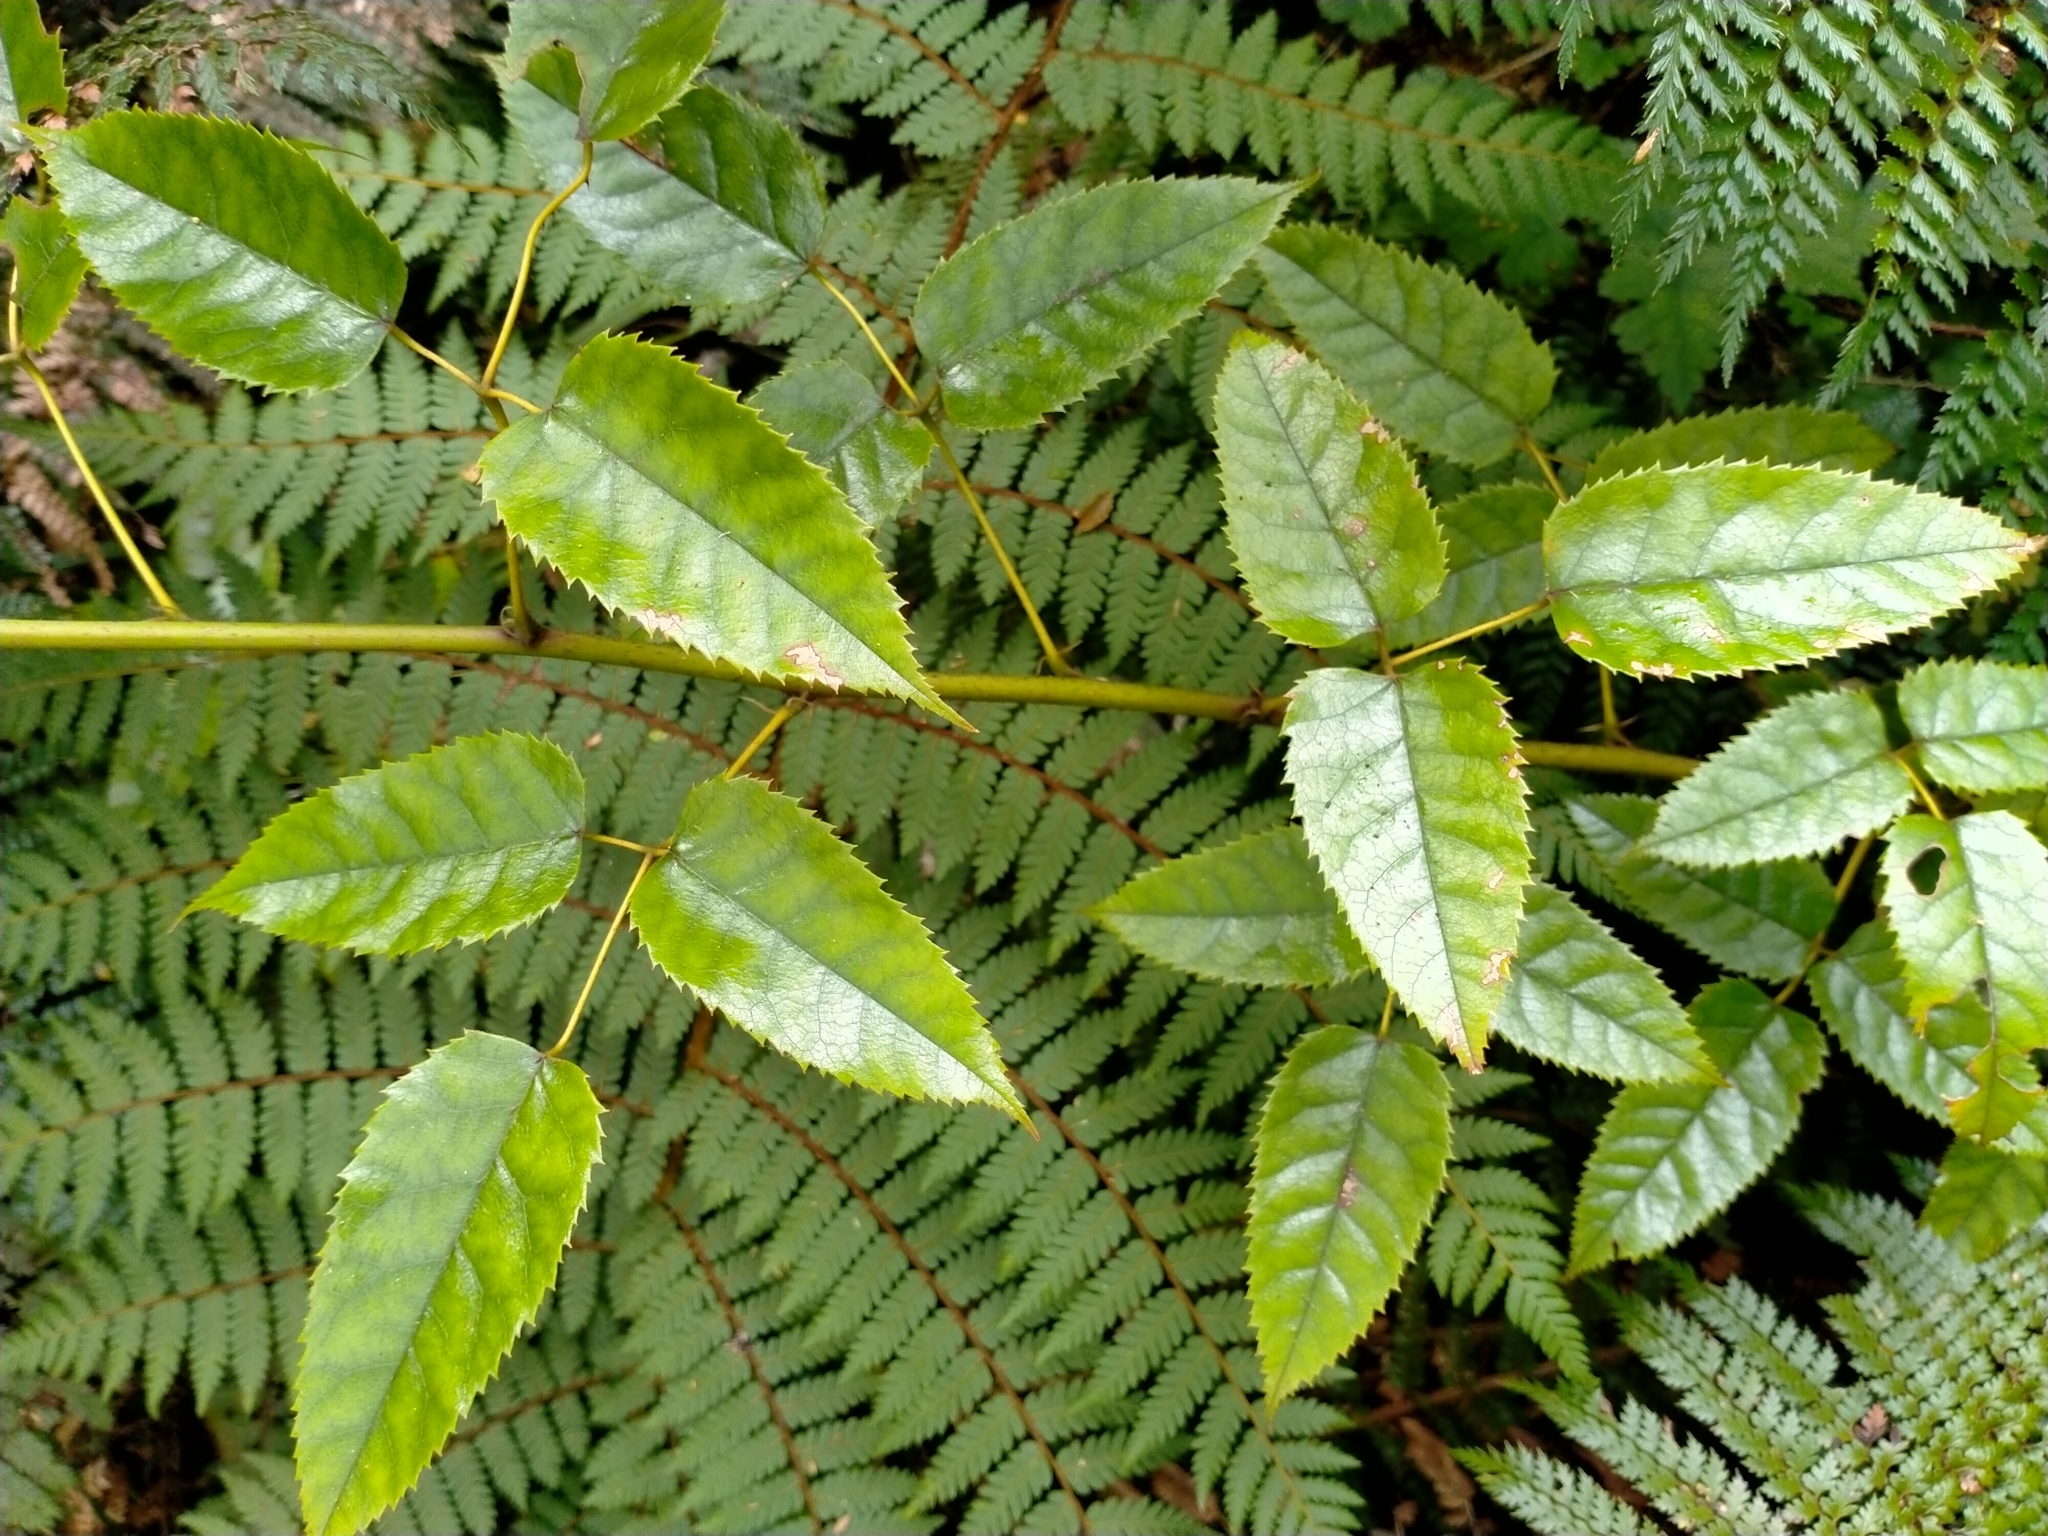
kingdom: Plantae
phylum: Tracheophyta
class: Magnoliopsida
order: Rosales
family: Rosaceae
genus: Rubus
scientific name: Rubus cissoides
